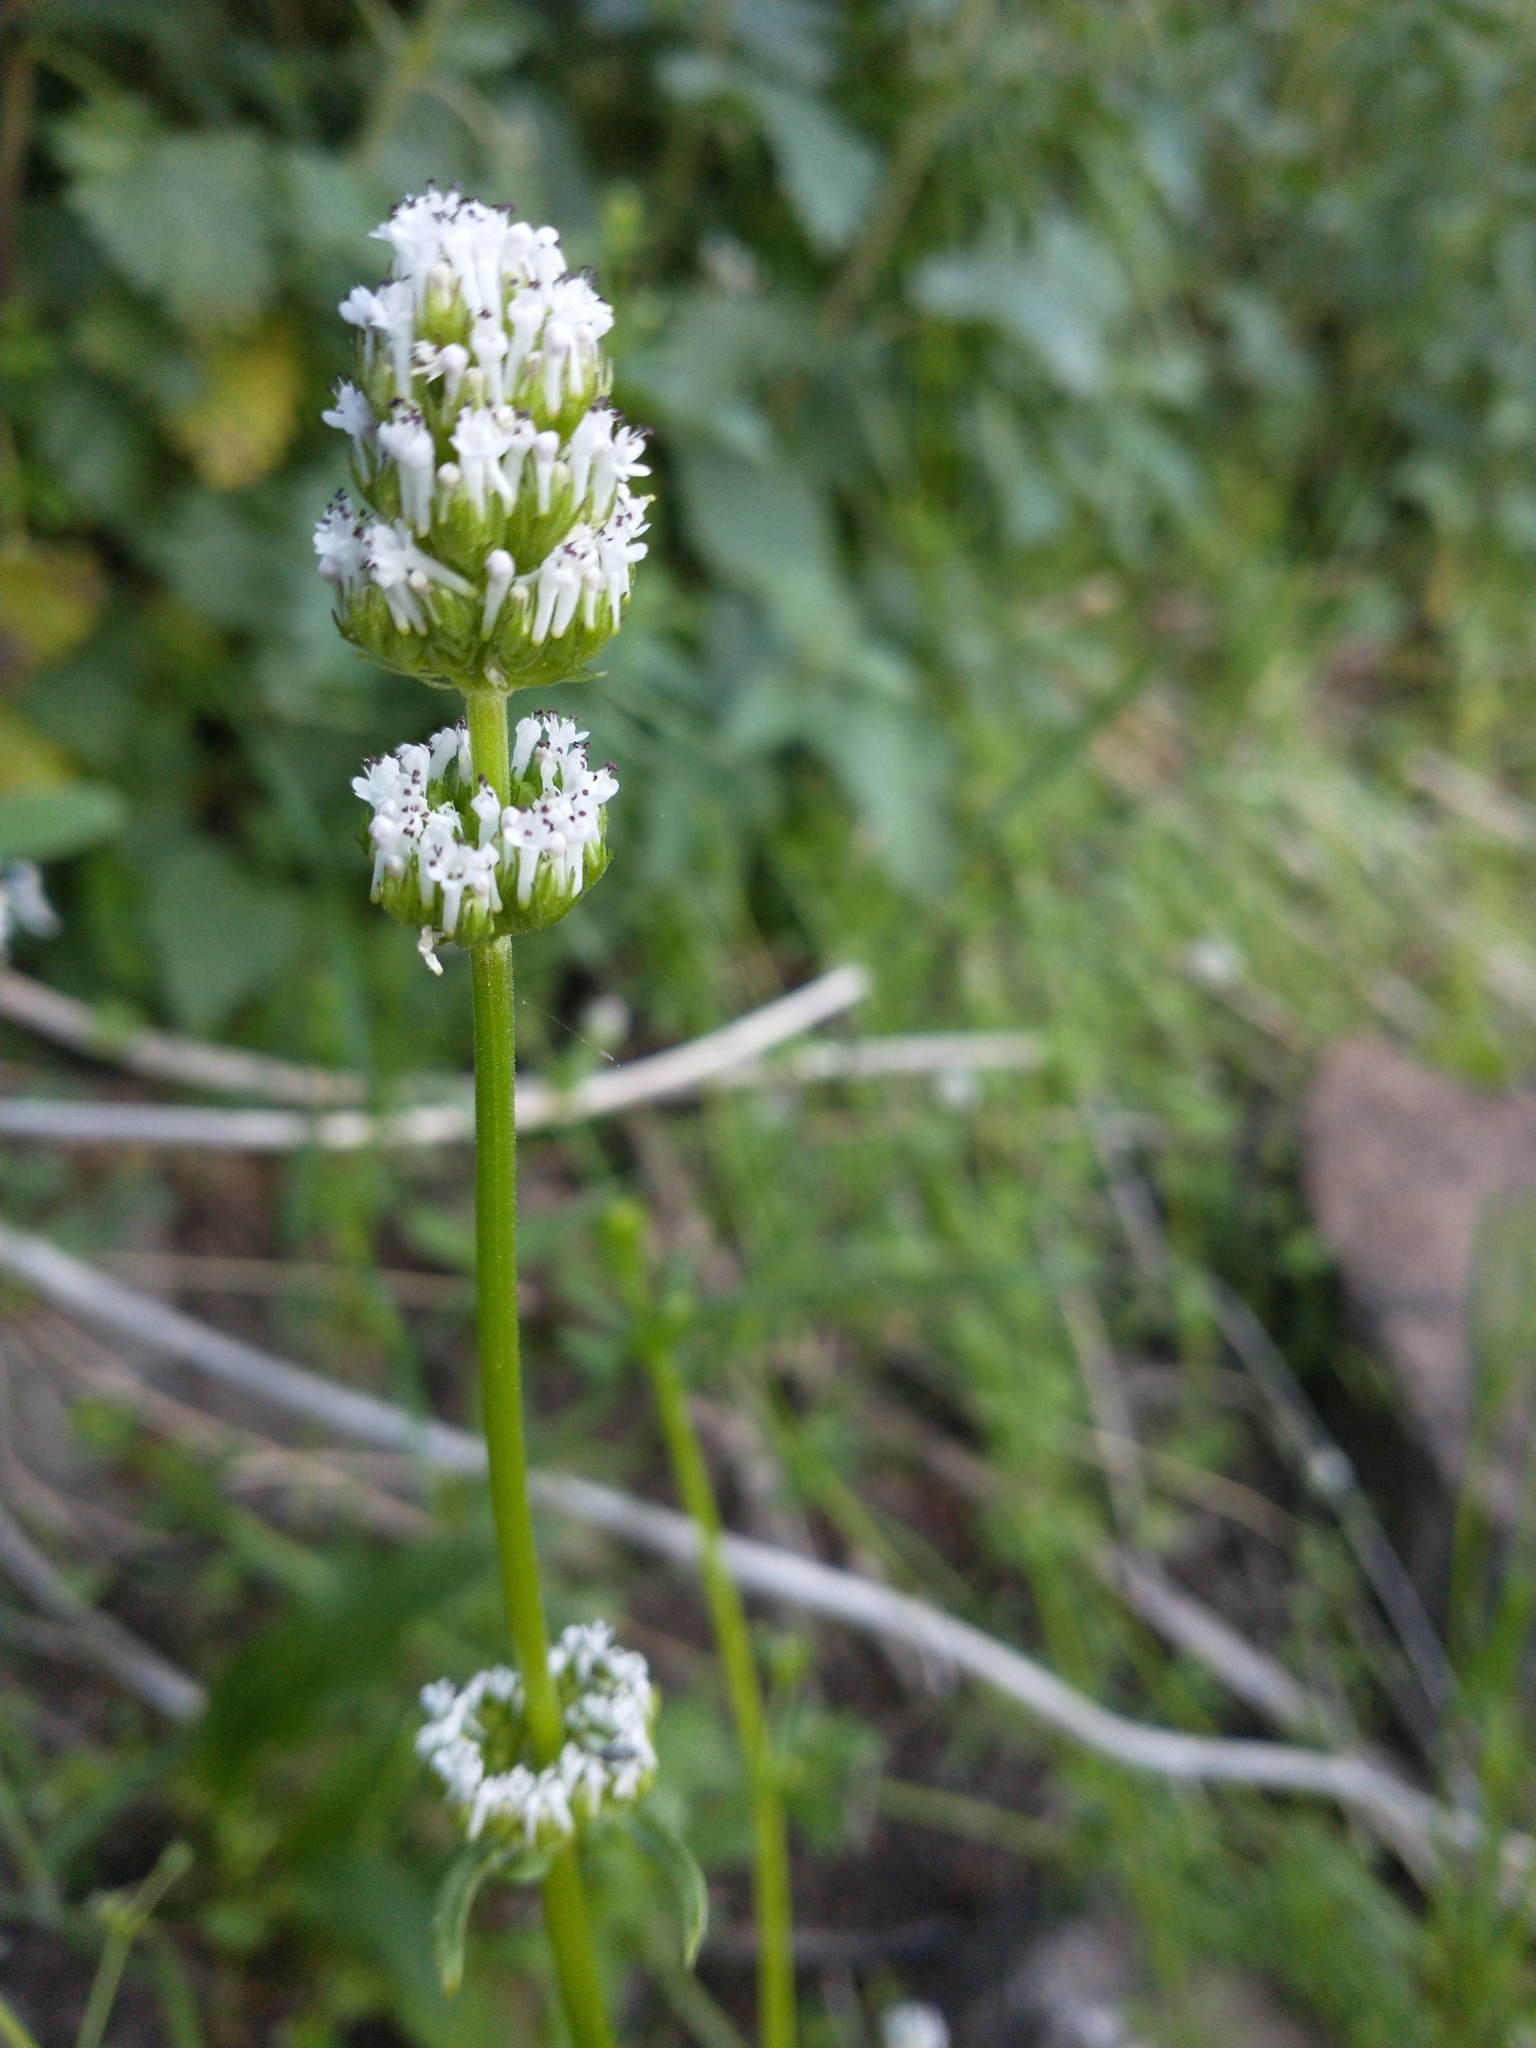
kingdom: Plantae
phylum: Tracheophyta
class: Magnoliopsida
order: Dipsacales
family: Caprifoliaceae
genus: Plectritis
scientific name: Plectritis macroptera
